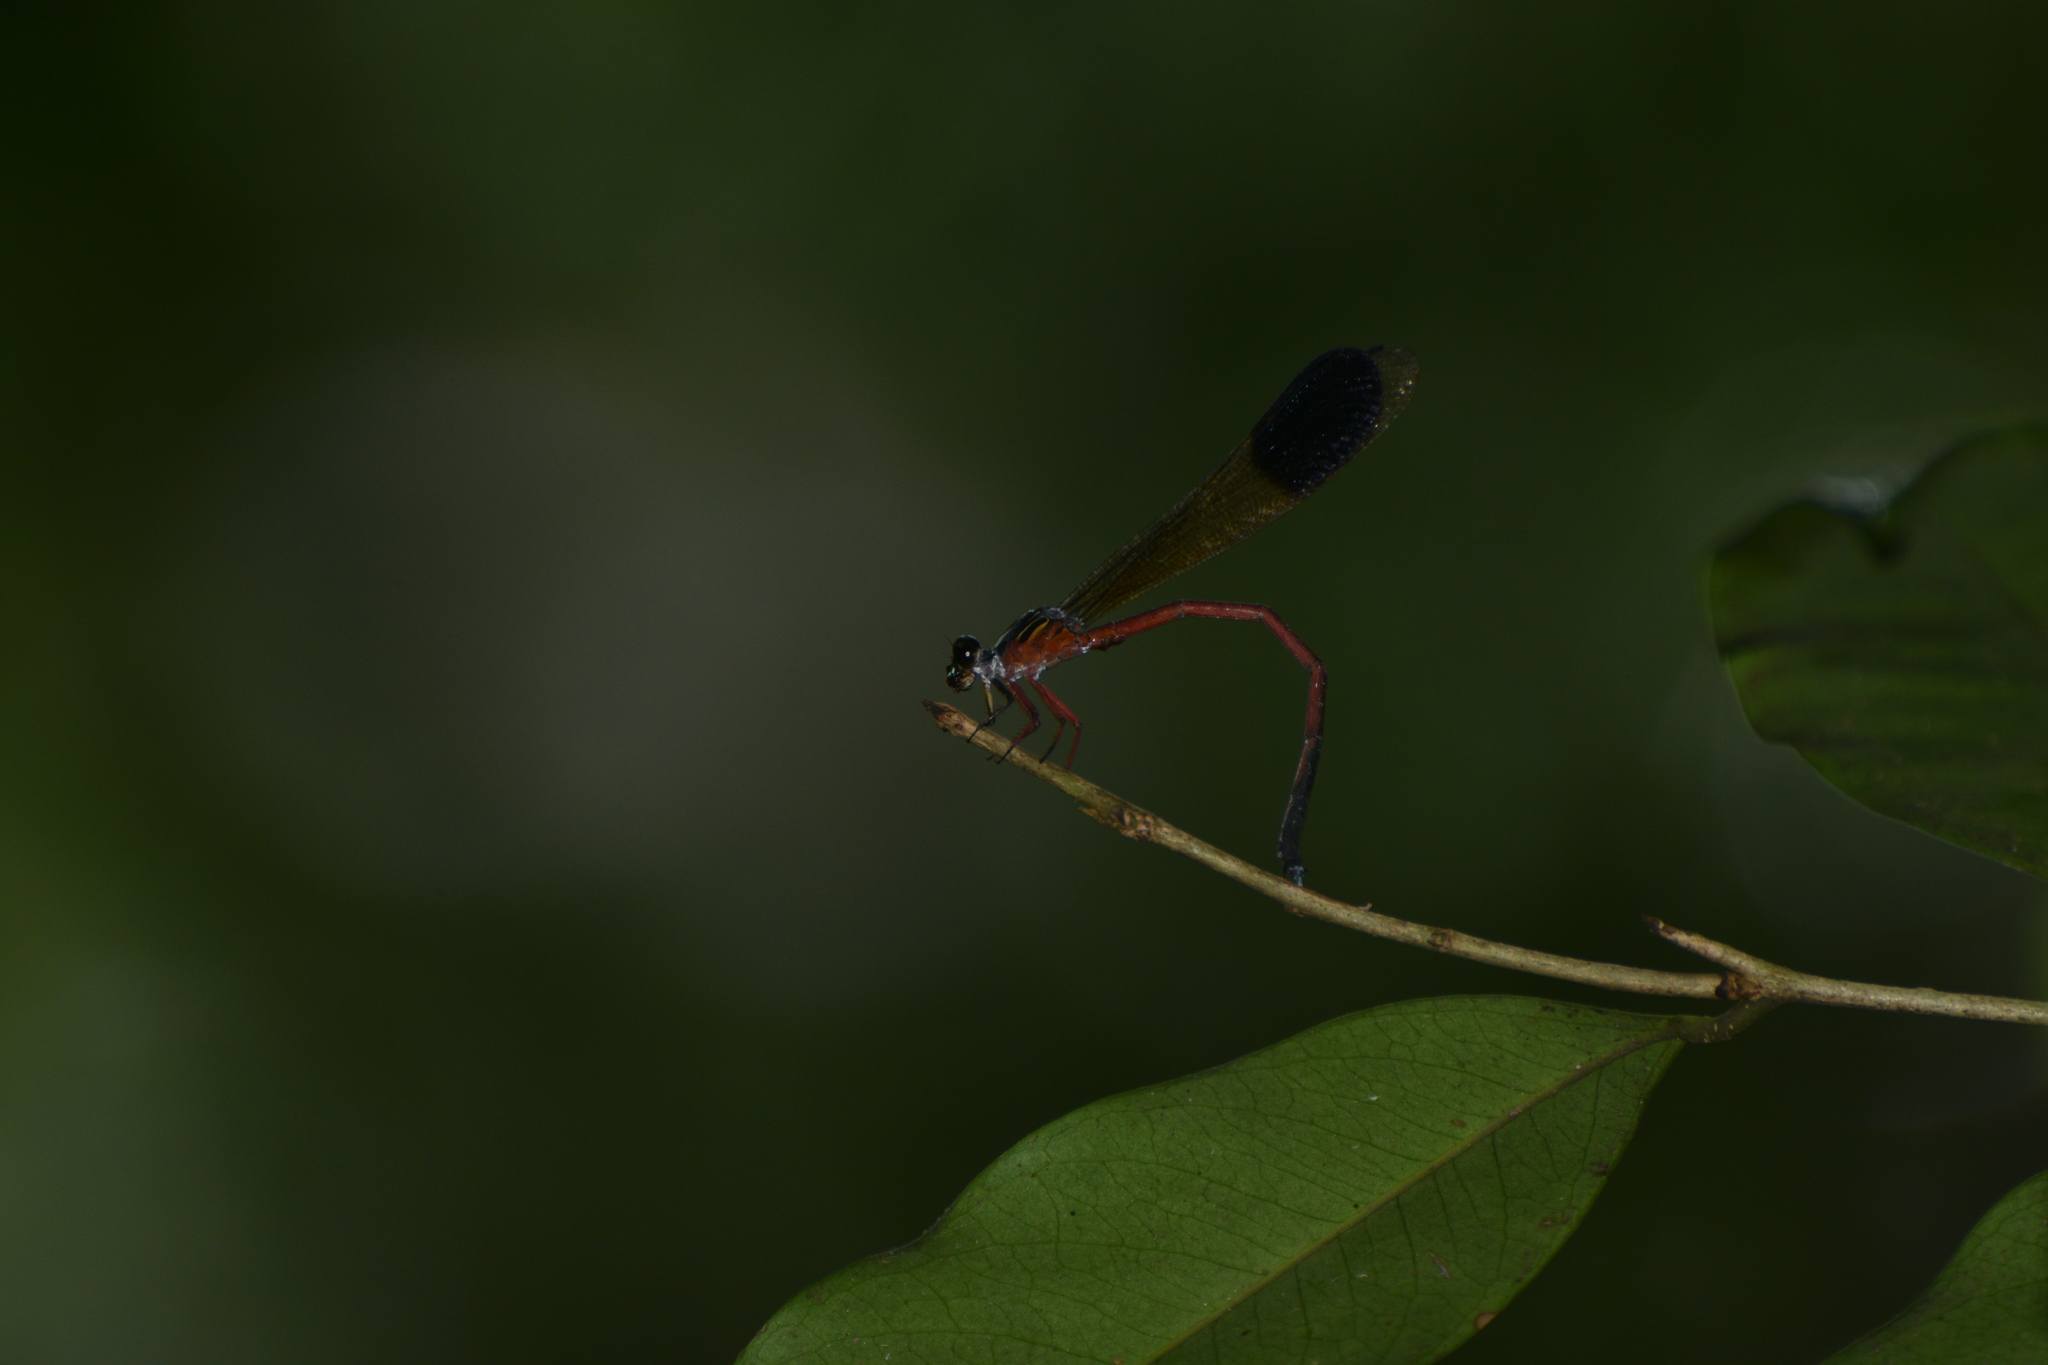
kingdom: Animalia
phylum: Arthropoda
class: Insecta
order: Odonata
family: Euphaeidae
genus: Euphaea
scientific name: Euphaea fraseri
